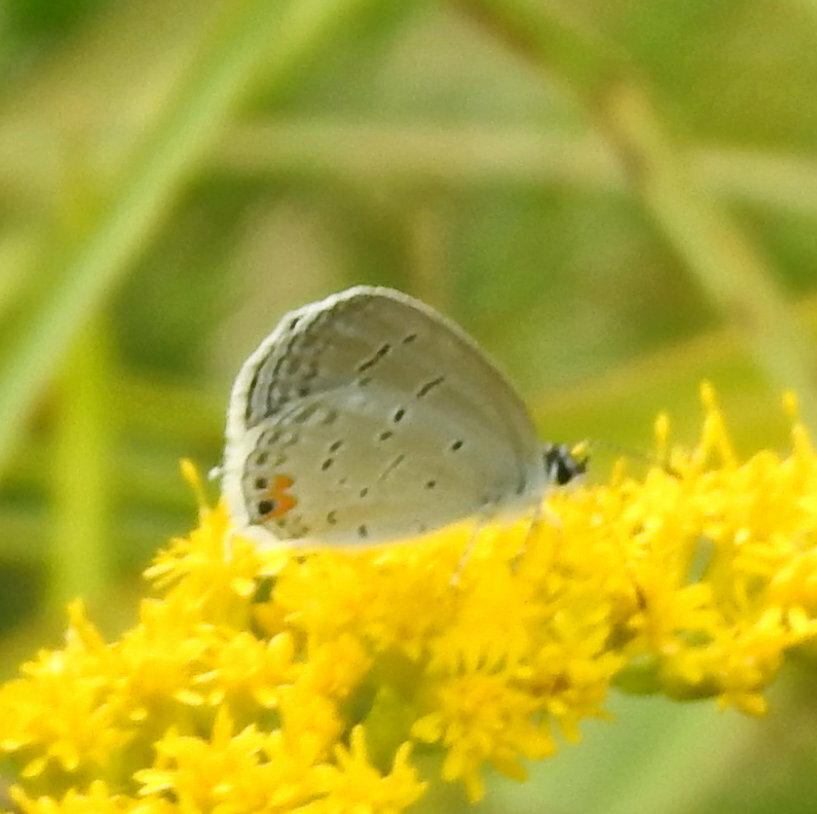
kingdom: Animalia
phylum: Arthropoda
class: Insecta
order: Lepidoptera
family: Lycaenidae
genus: Elkalyce
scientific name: Elkalyce comyntas
